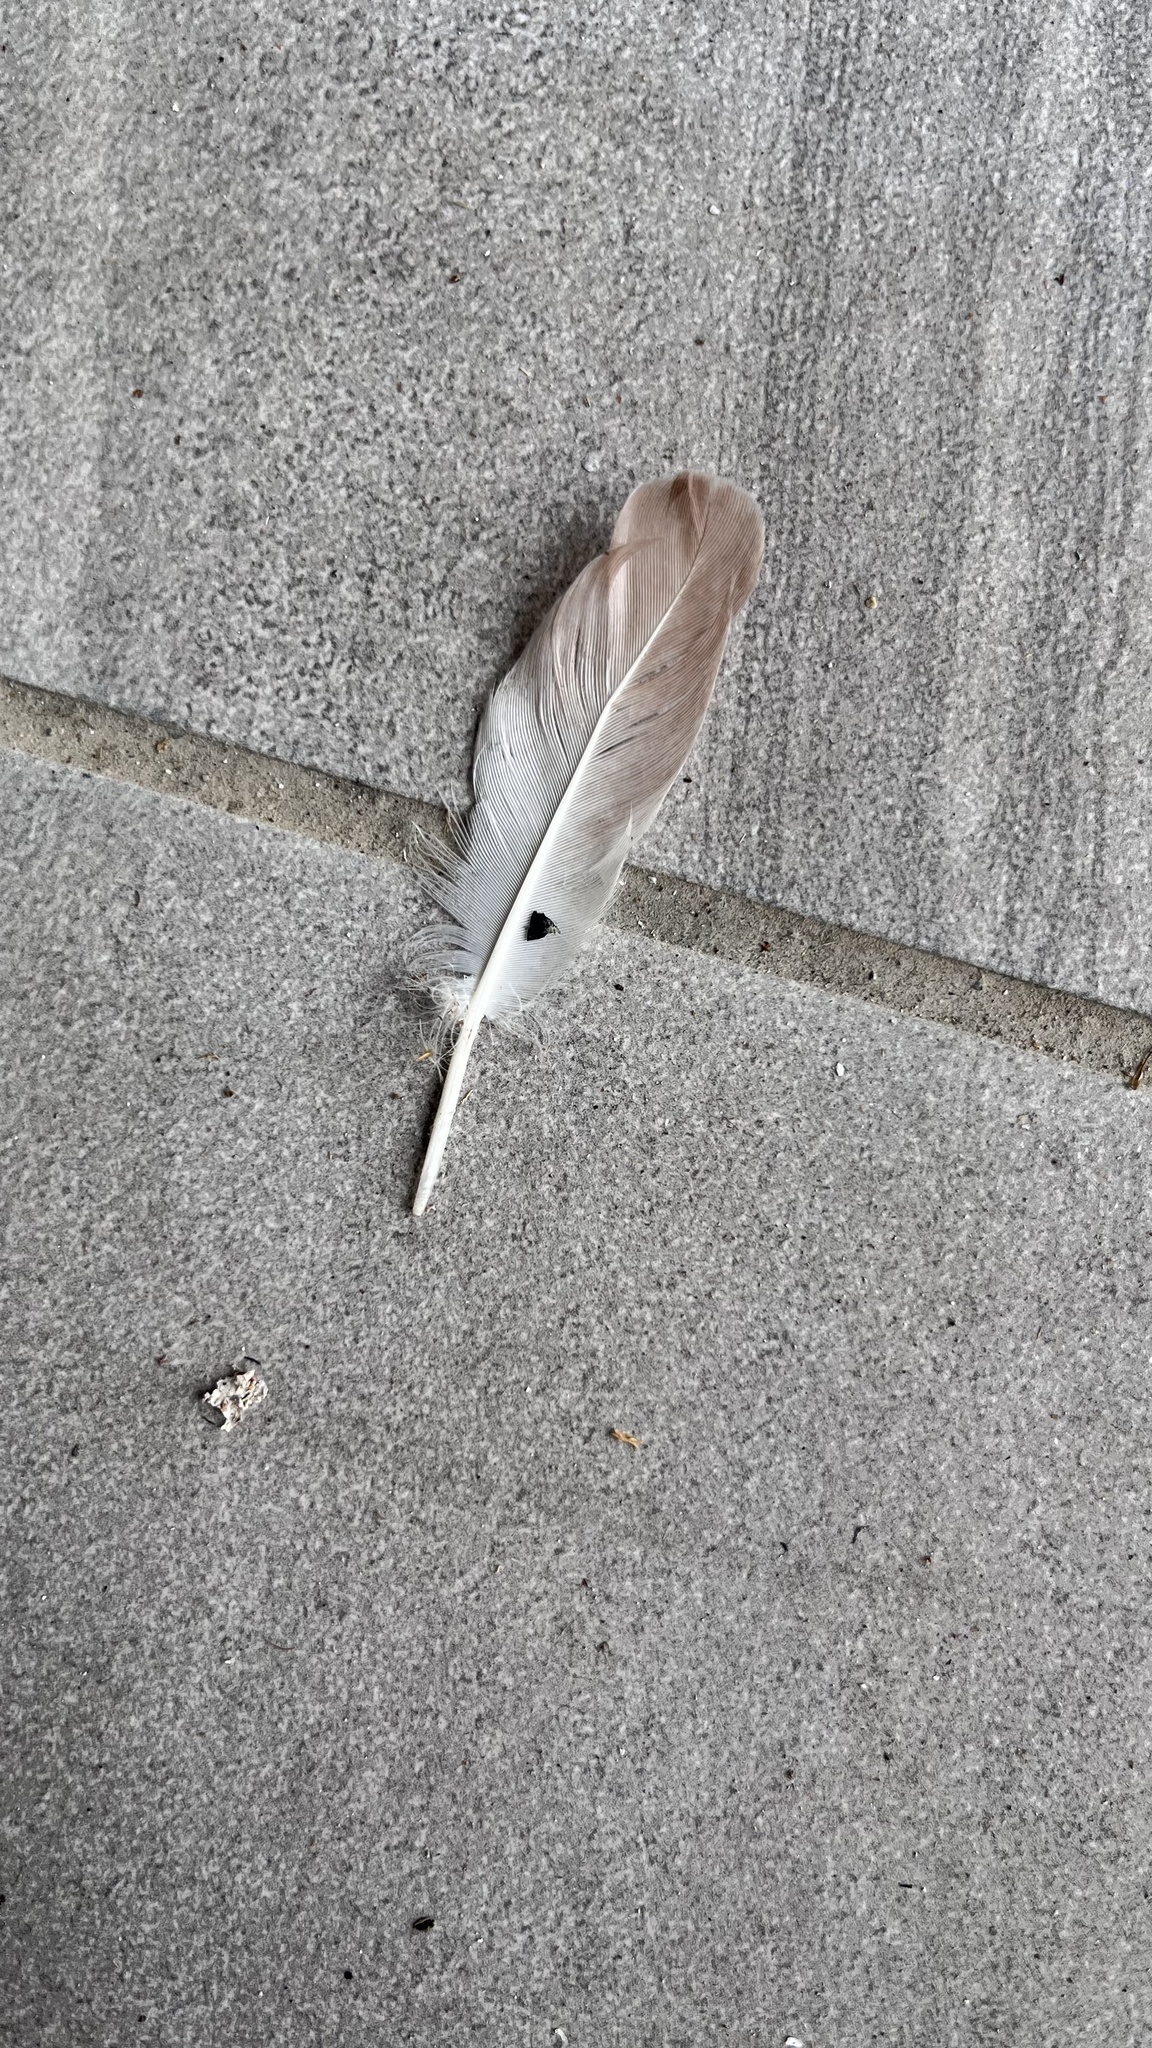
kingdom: Animalia
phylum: Chordata
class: Aves
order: Columbiformes
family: Columbidae
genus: Columba
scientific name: Columba livia
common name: Rock pigeon
